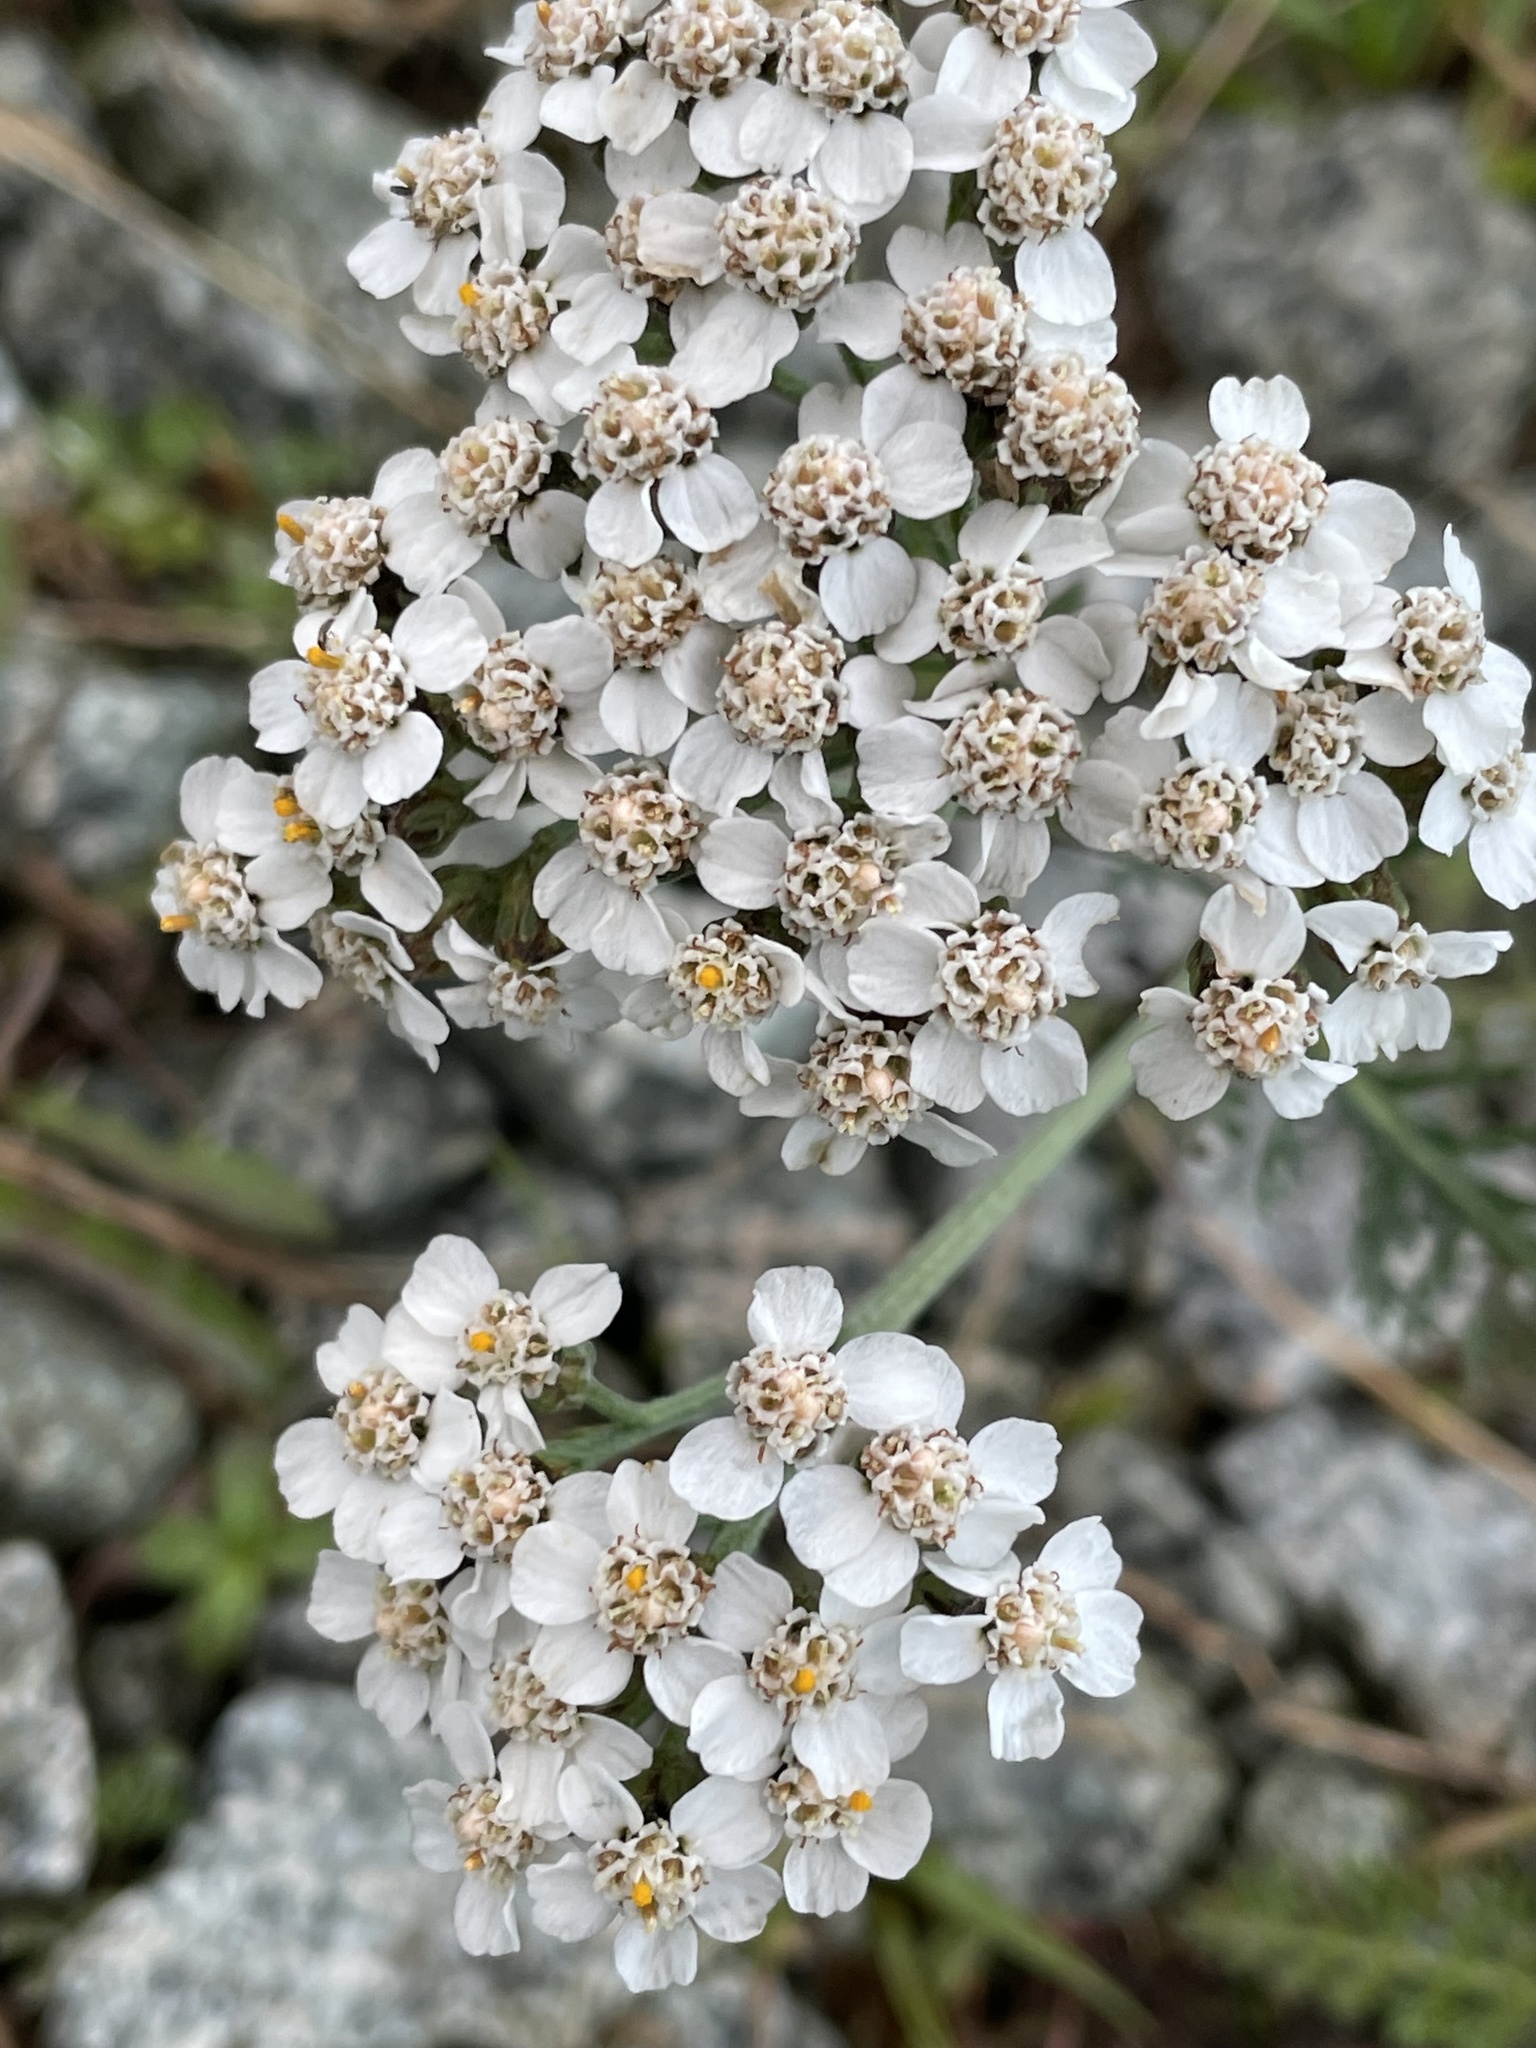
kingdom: Plantae
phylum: Tracheophyta
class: Magnoliopsida
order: Asterales
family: Asteraceae
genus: Achillea
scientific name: Achillea millefolium
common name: Yarrow
